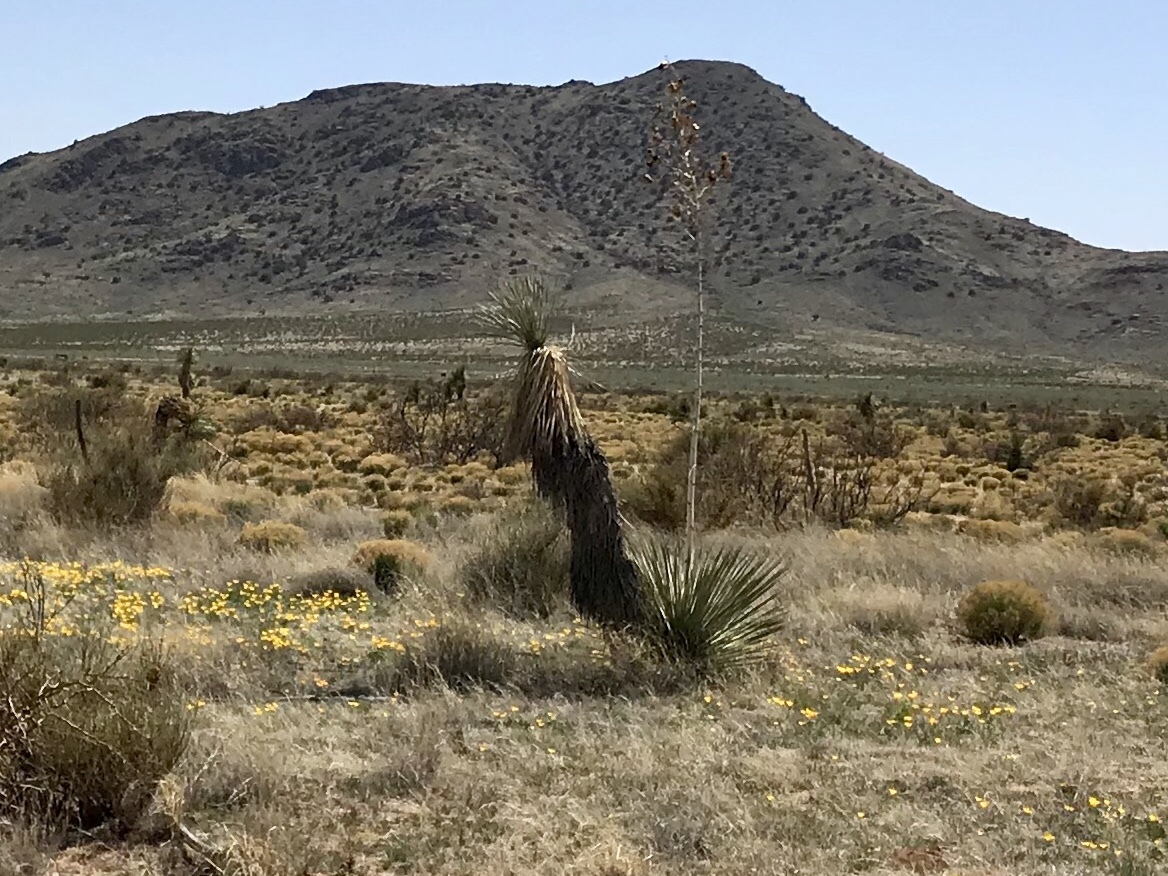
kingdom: Plantae
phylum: Tracheophyta
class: Liliopsida
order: Asparagales
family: Asparagaceae
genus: Yucca
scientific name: Yucca elata
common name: Palmella
